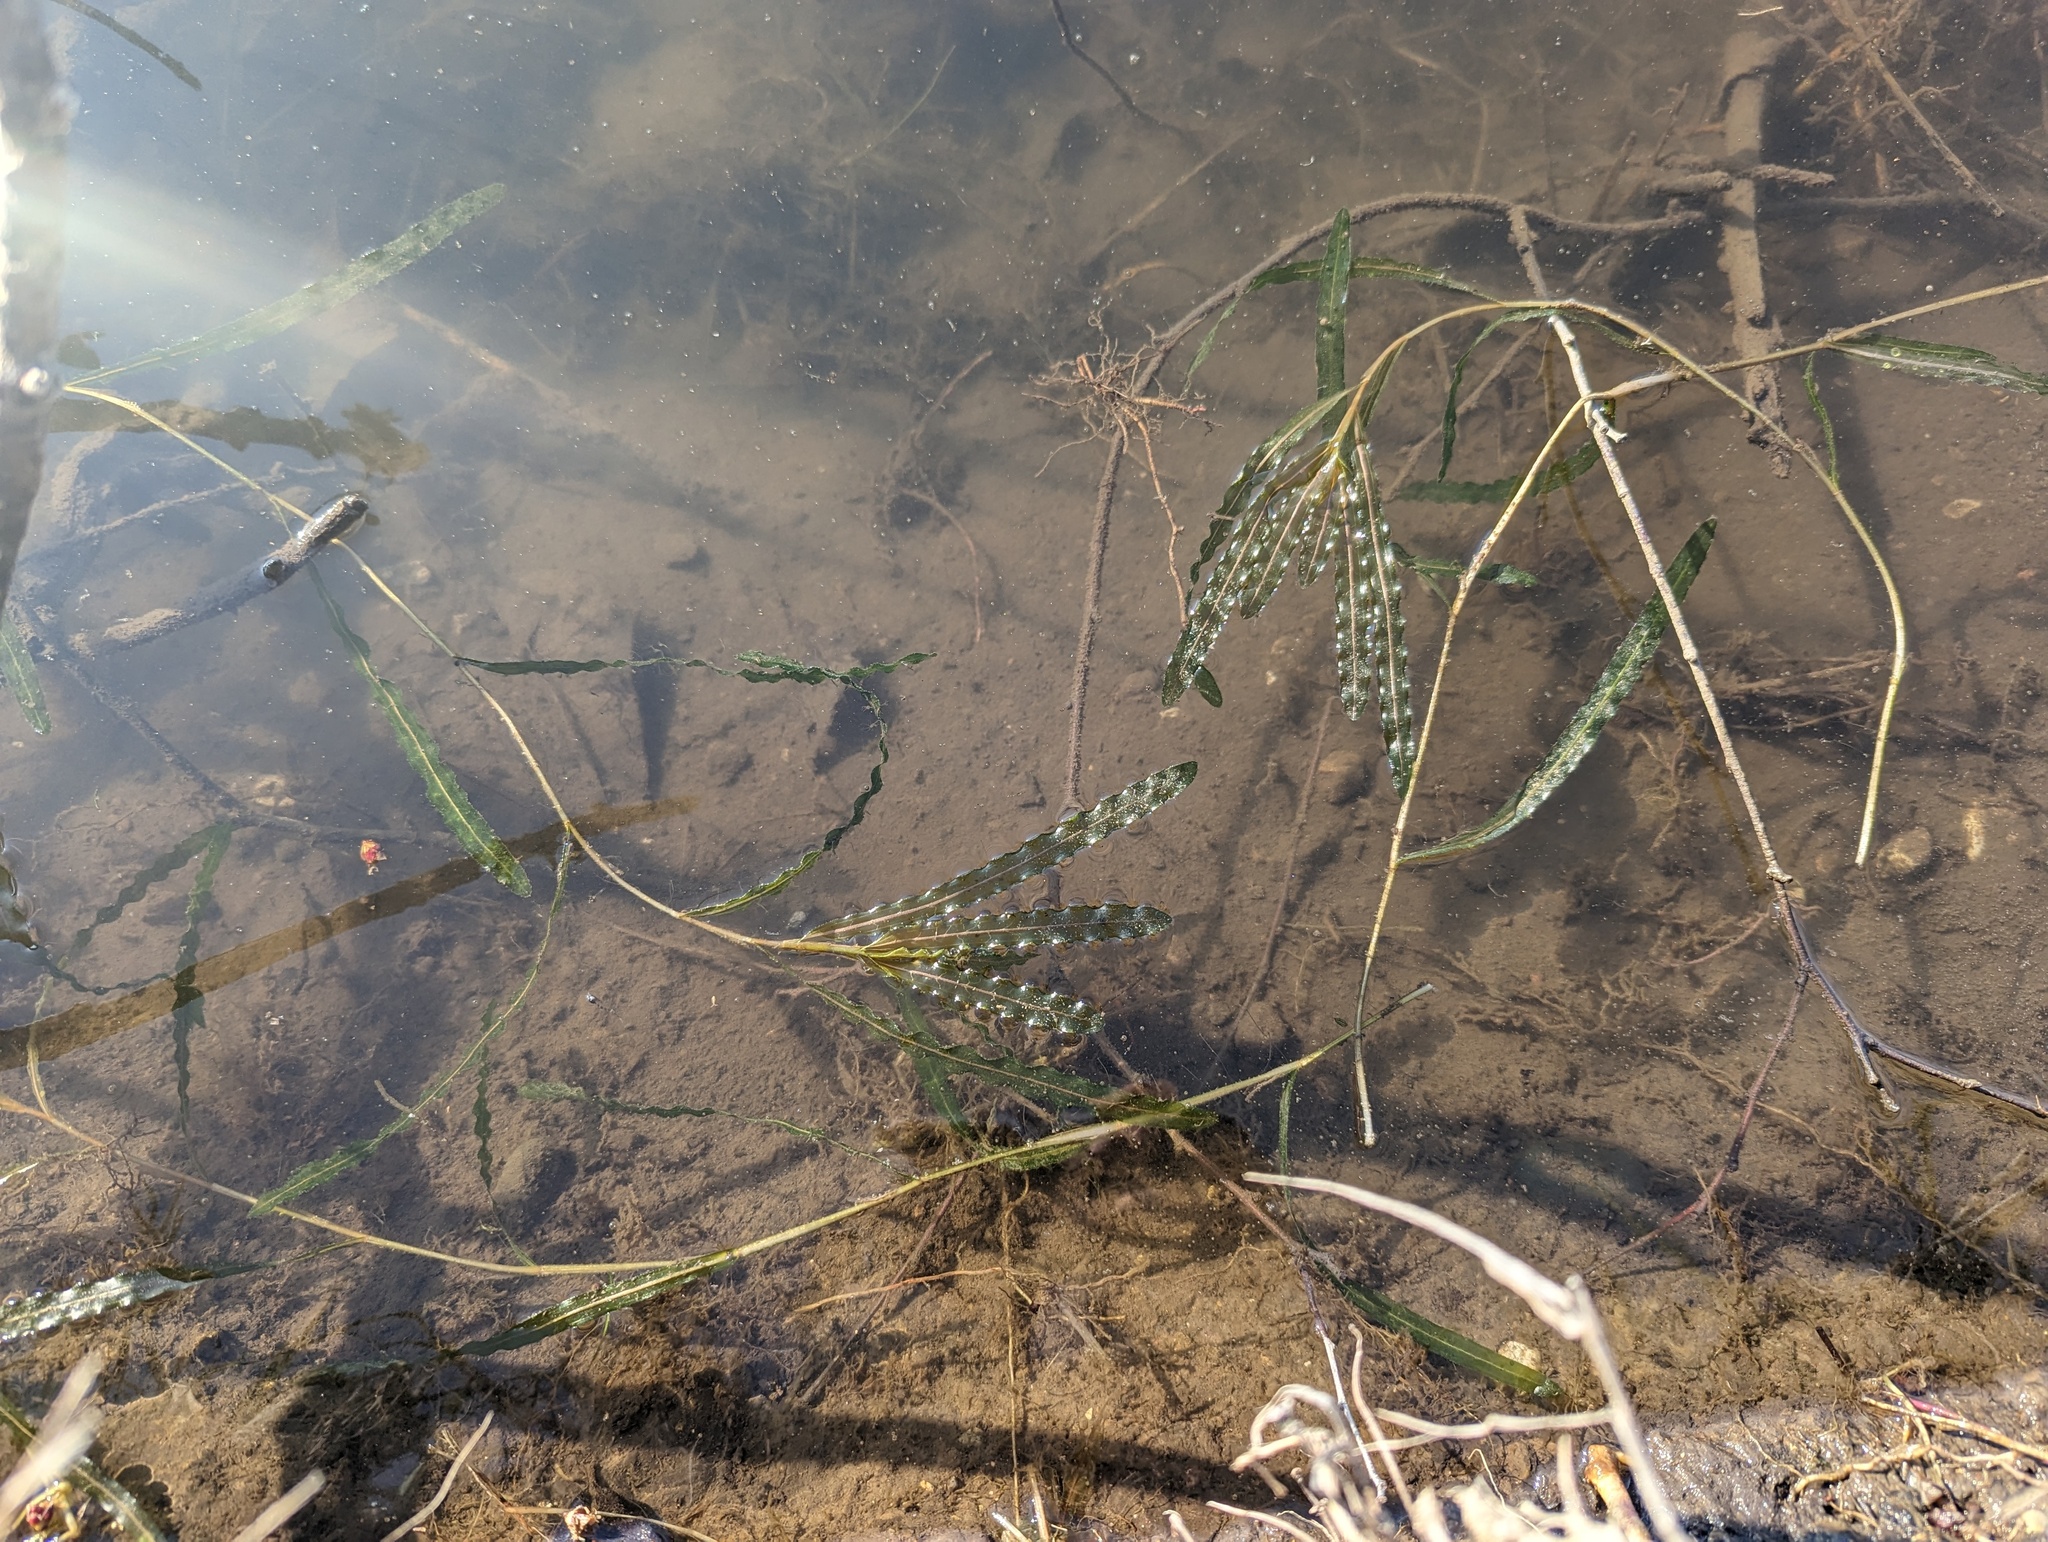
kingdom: Plantae
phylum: Tracheophyta
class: Liliopsida
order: Alismatales
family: Potamogetonaceae
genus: Potamogeton
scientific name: Potamogeton crispus
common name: Curled pondweed
